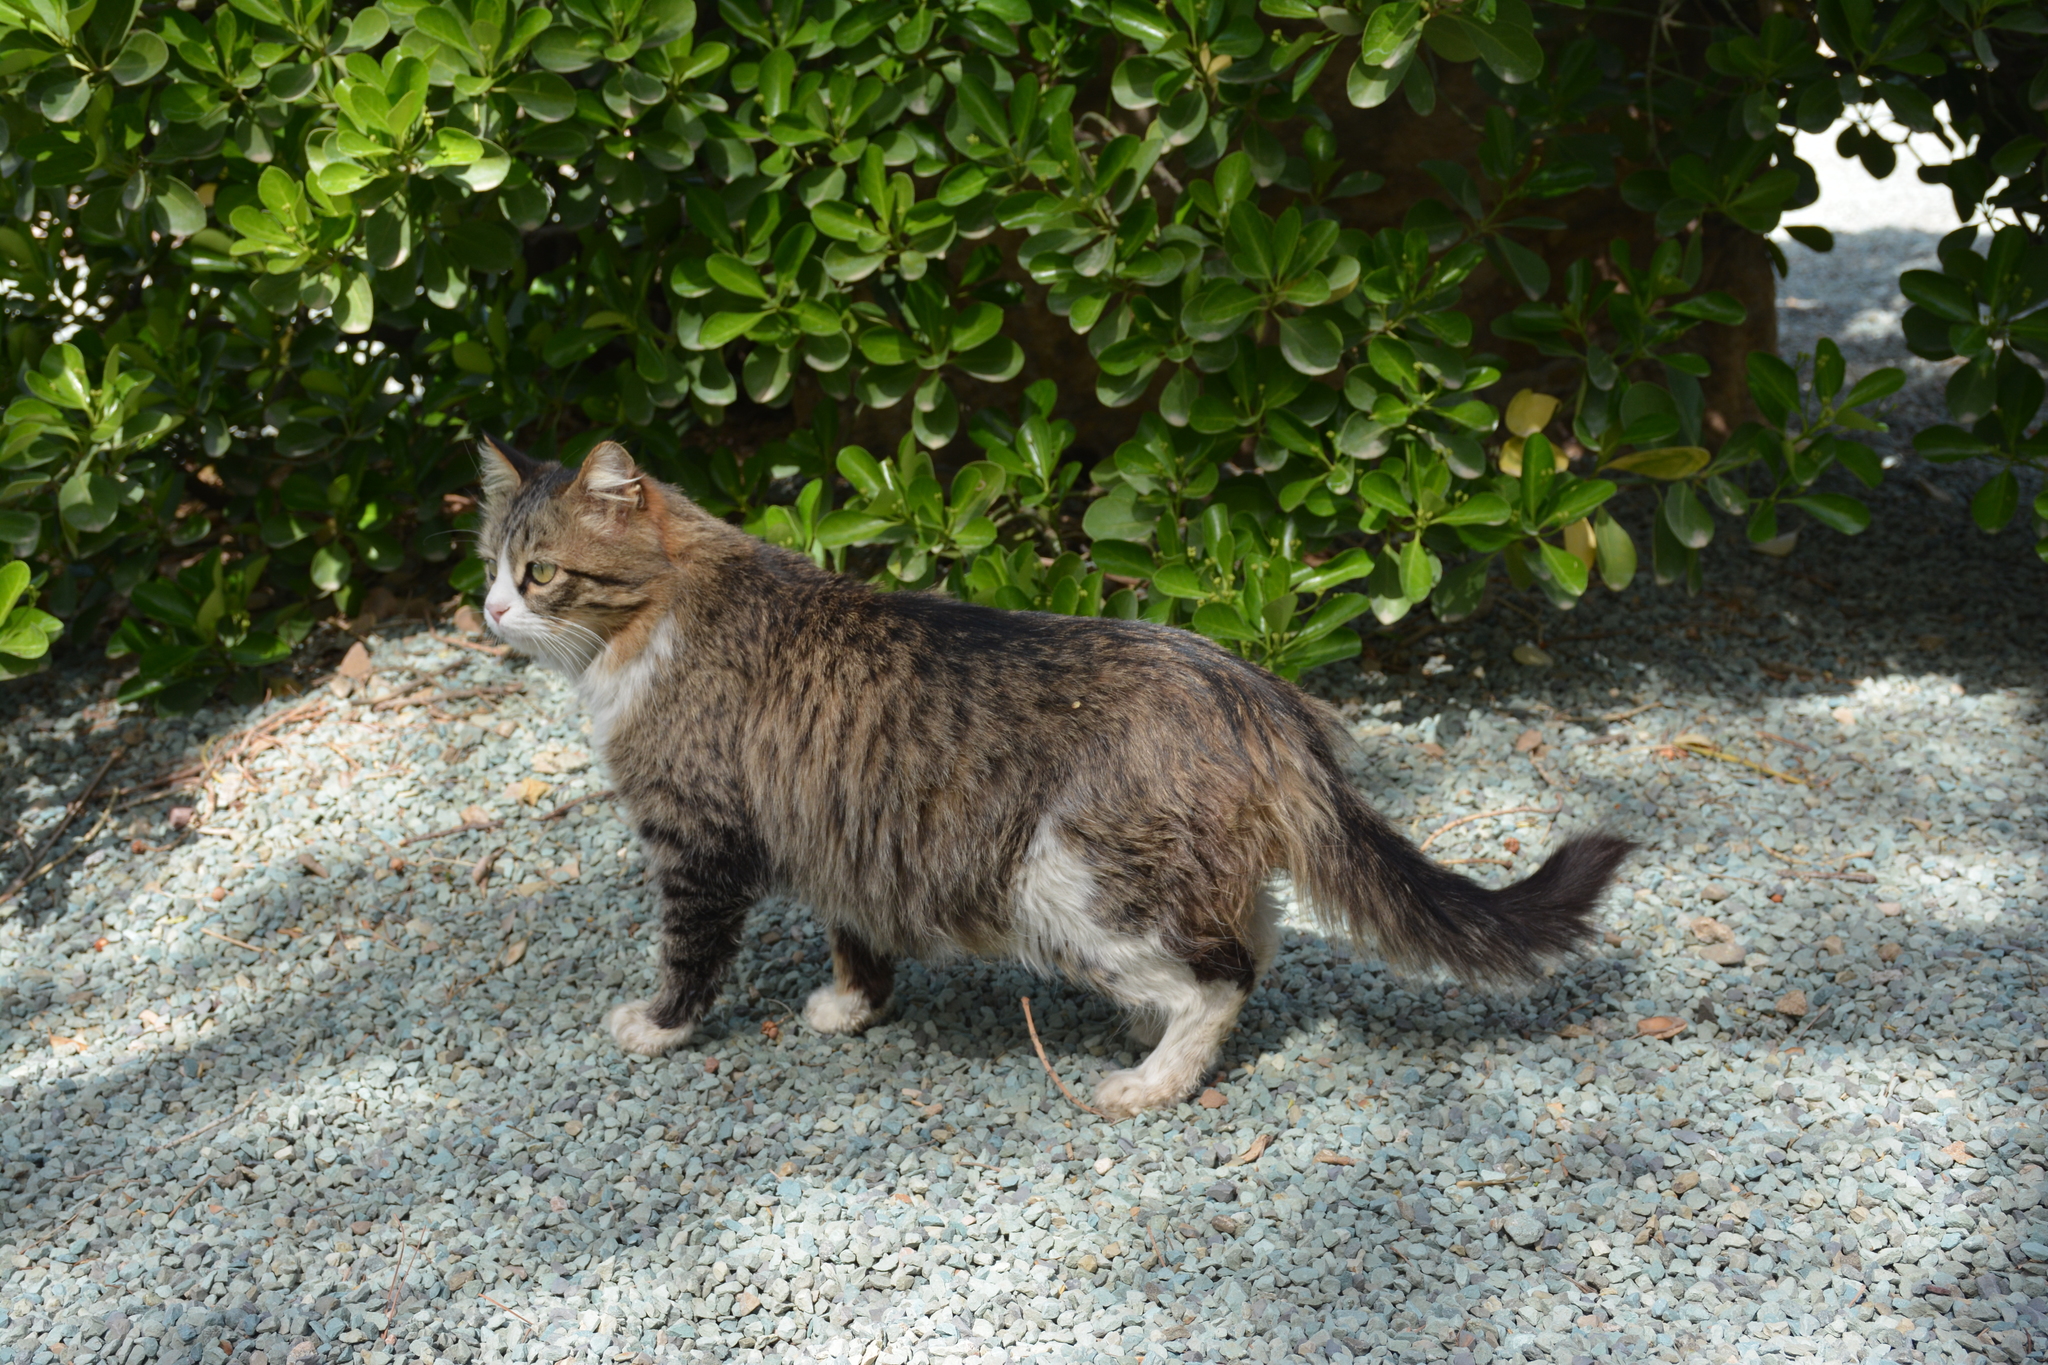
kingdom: Animalia
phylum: Chordata
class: Mammalia
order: Carnivora
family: Felidae
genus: Felis
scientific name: Felis catus
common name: Domestic cat
